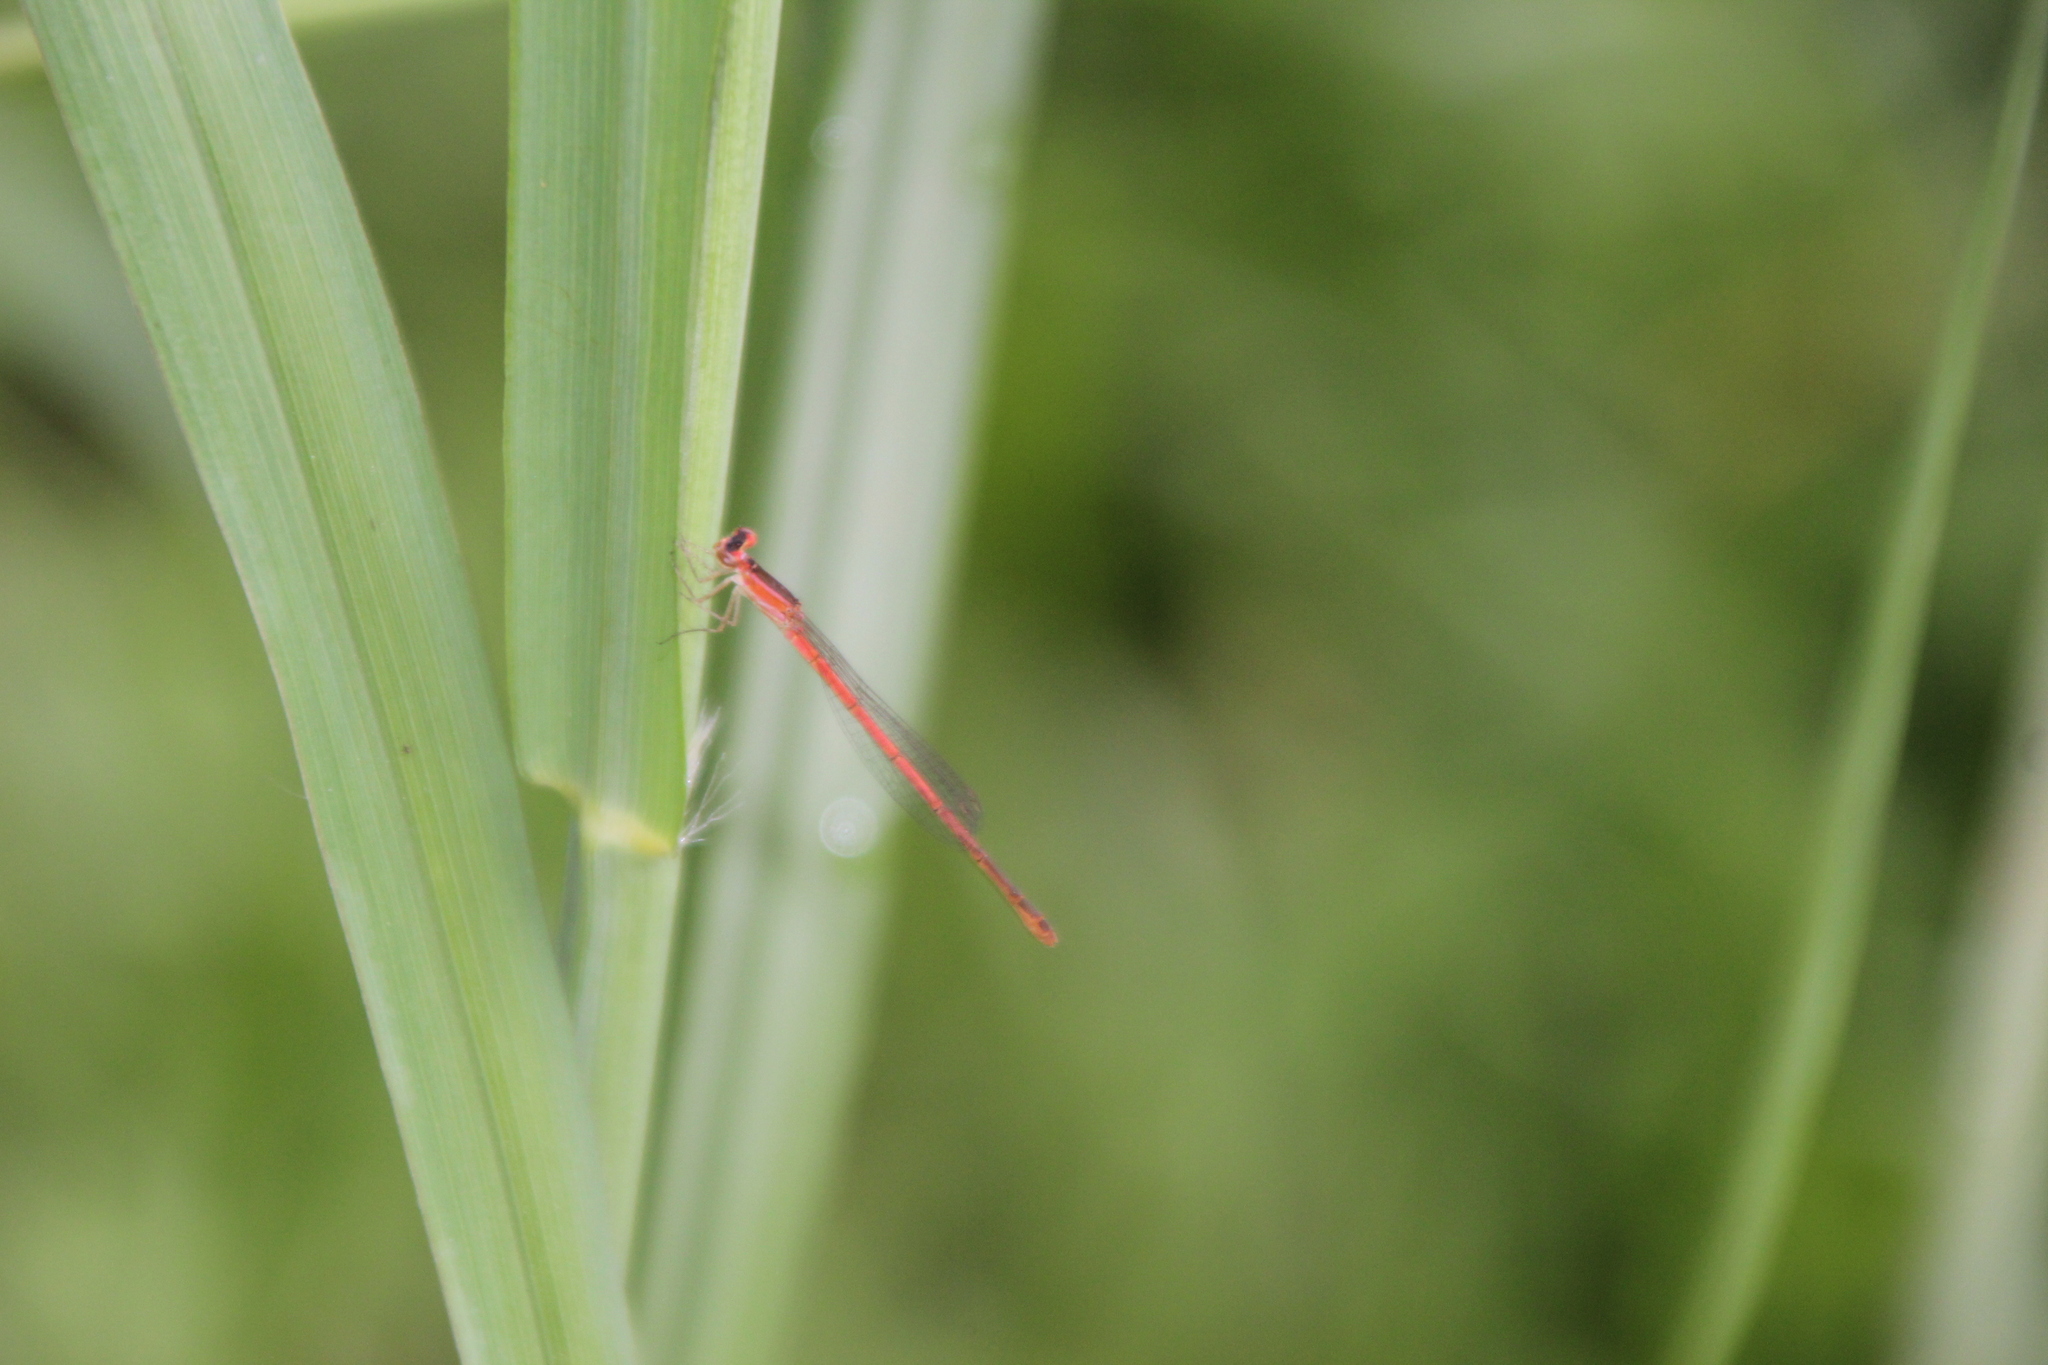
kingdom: Animalia
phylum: Arthropoda
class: Insecta
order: Odonata
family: Coenagrionidae
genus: Agriocnemis
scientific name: Agriocnemis falcifera
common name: White-masked wisp
